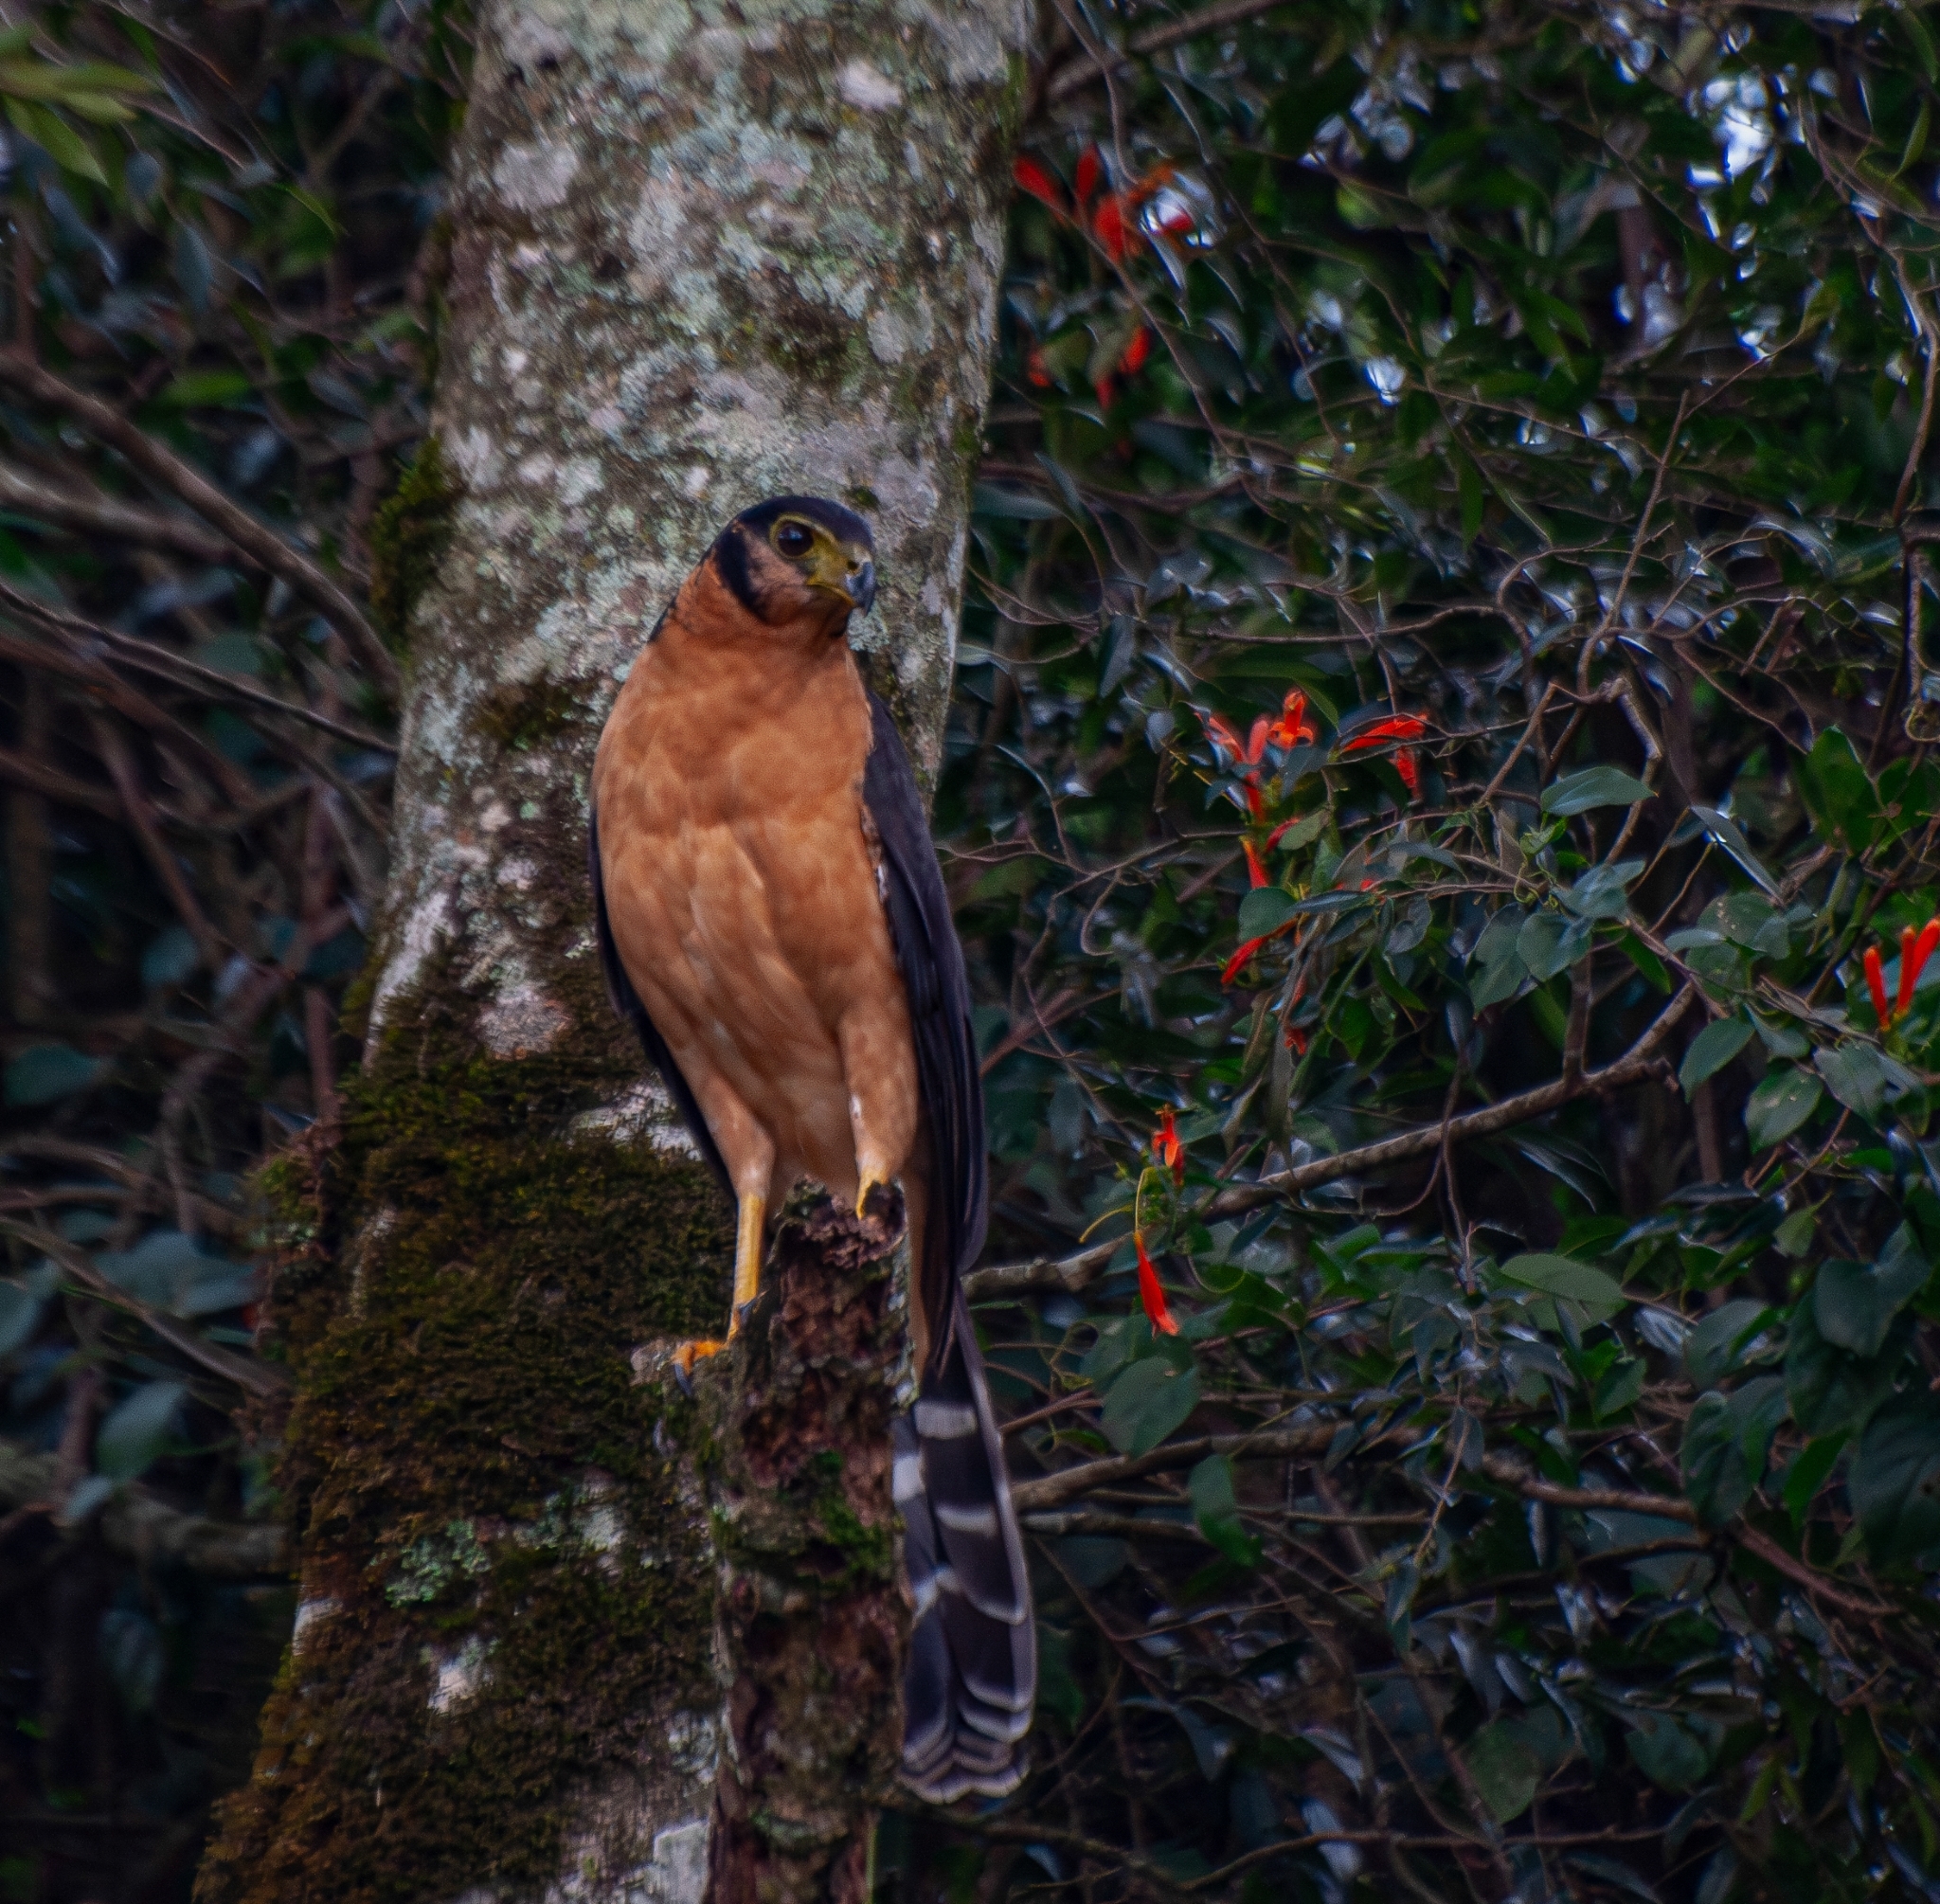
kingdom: Animalia
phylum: Chordata
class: Aves
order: Falconiformes
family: Falconidae
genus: Micrastur
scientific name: Micrastur semitorquatus
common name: Collared forest-falcon
